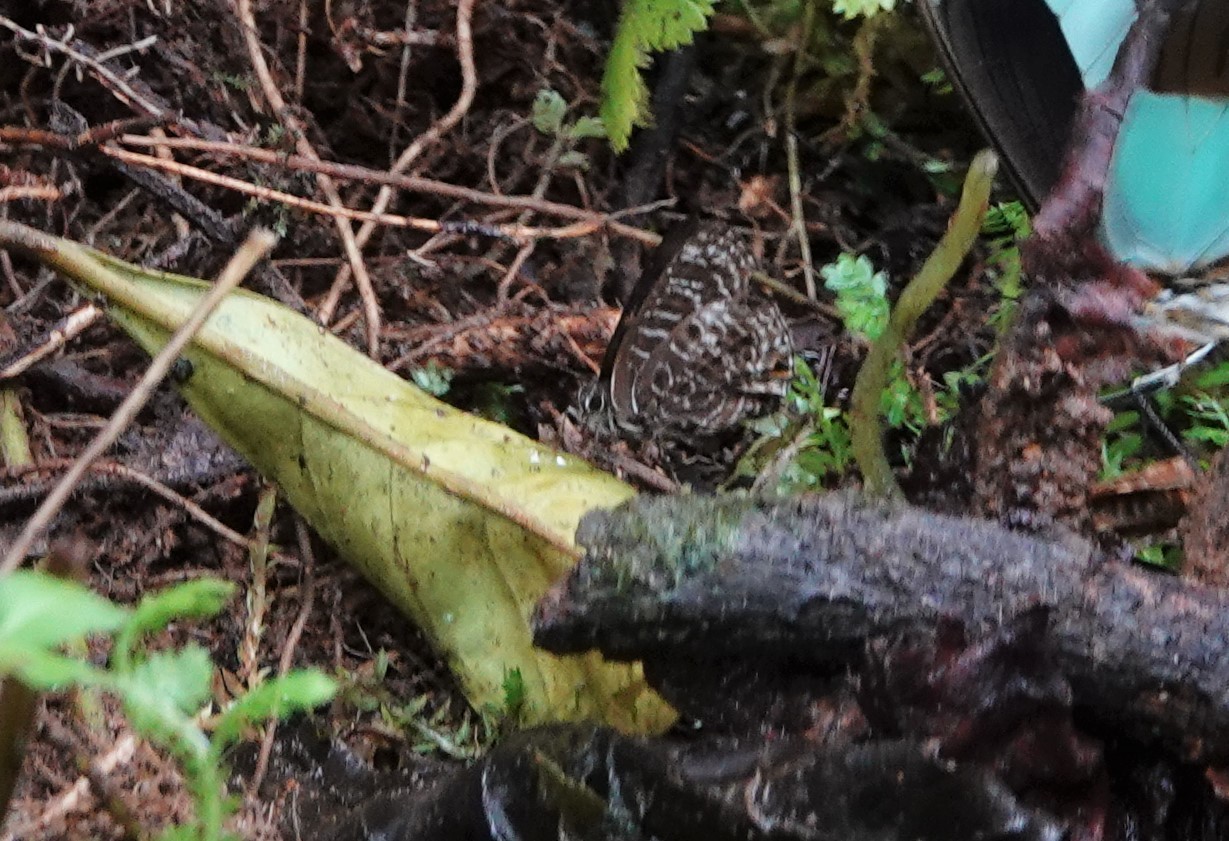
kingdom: Animalia
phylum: Arthropoda
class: Insecta
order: Lepidoptera
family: Lycaenidae
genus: Anthene
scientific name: Anthene larydas
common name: Forest hairtail
